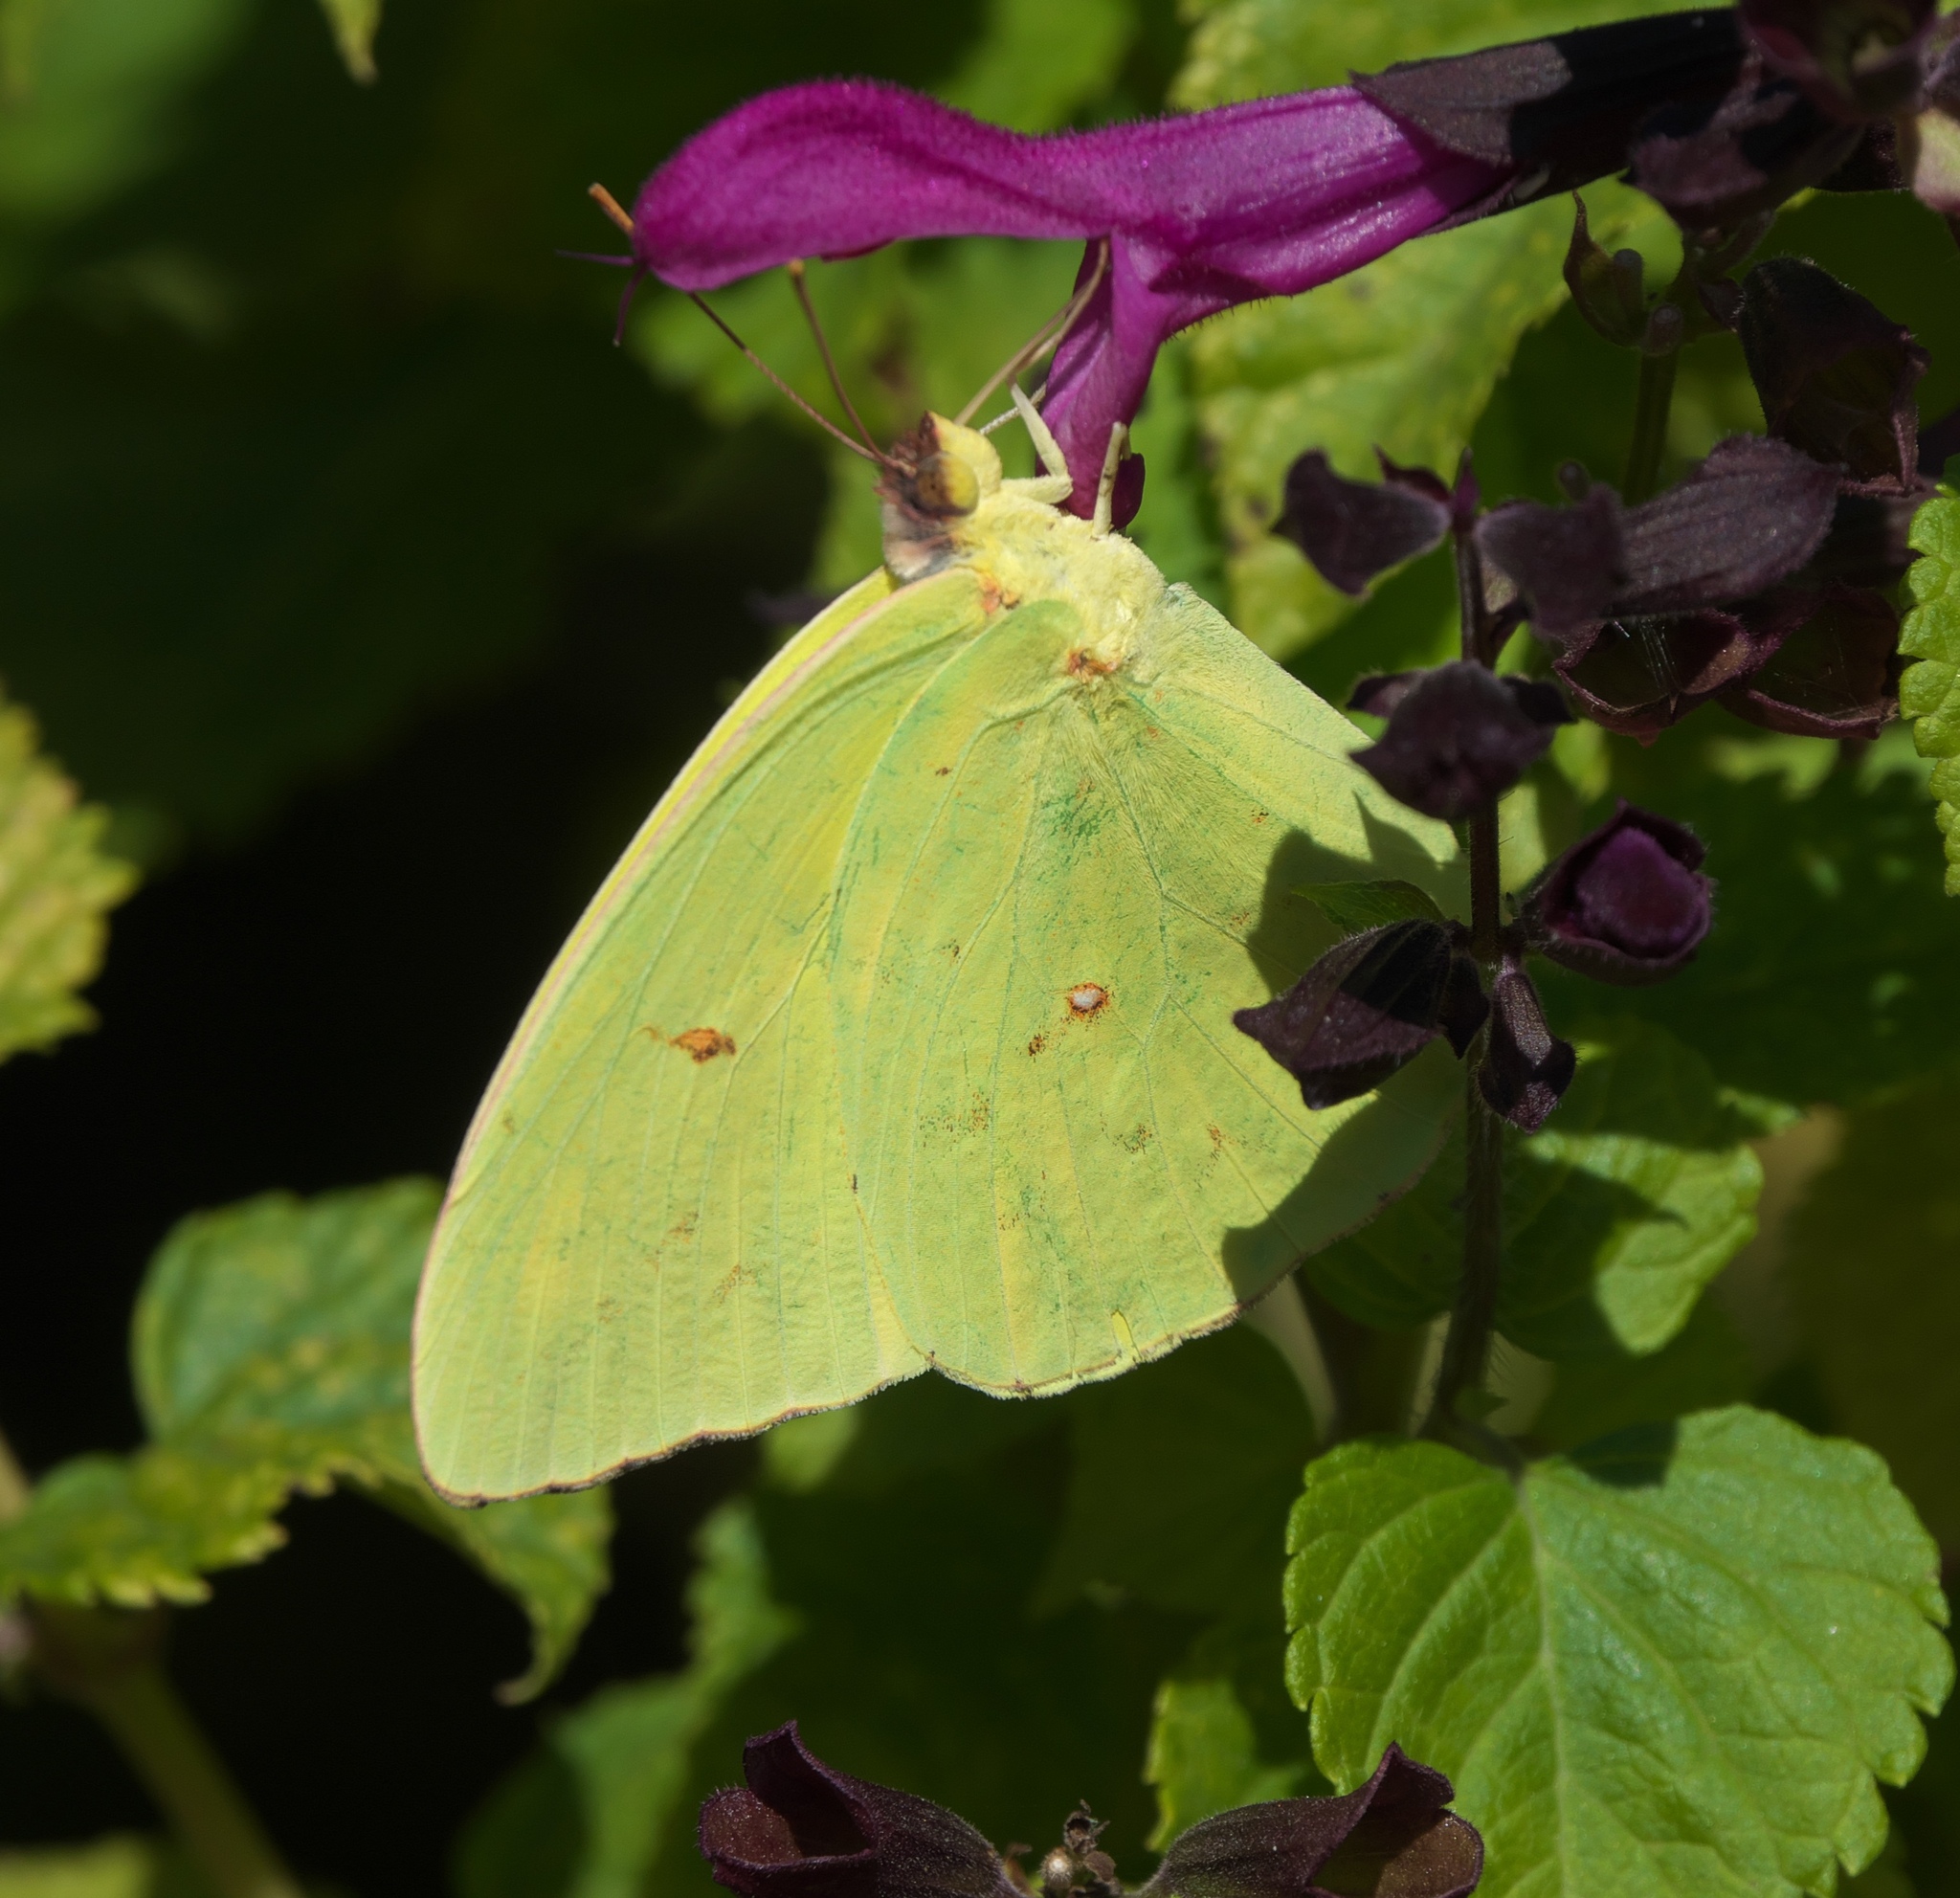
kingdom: Animalia
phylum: Arthropoda
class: Insecta
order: Lepidoptera
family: Pieridae
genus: Phoebis
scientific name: Phoebis sennae
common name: Cloudless sulphur
